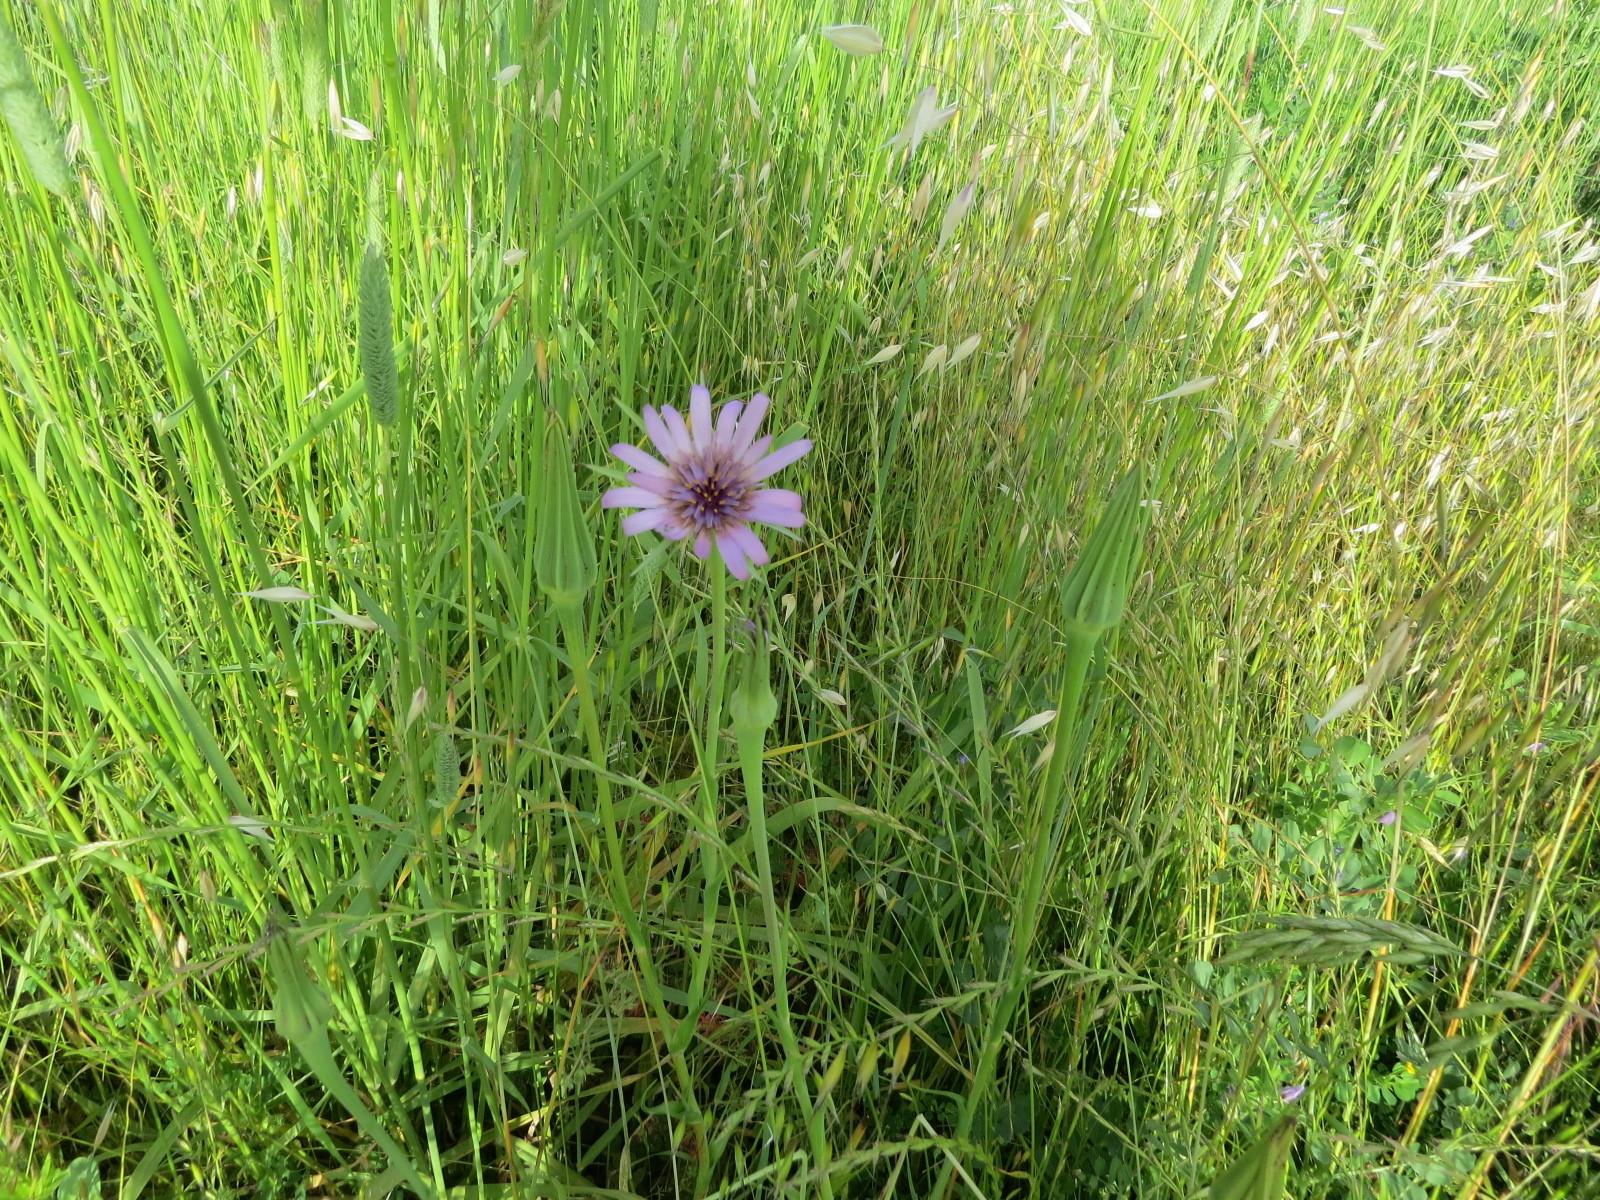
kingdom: Plantae
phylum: Tracheophyta
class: Magnoliopsida
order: Asterales
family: Asteraceae
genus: Tragopogon
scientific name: Tragopogon porrifolius
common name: Salsify
